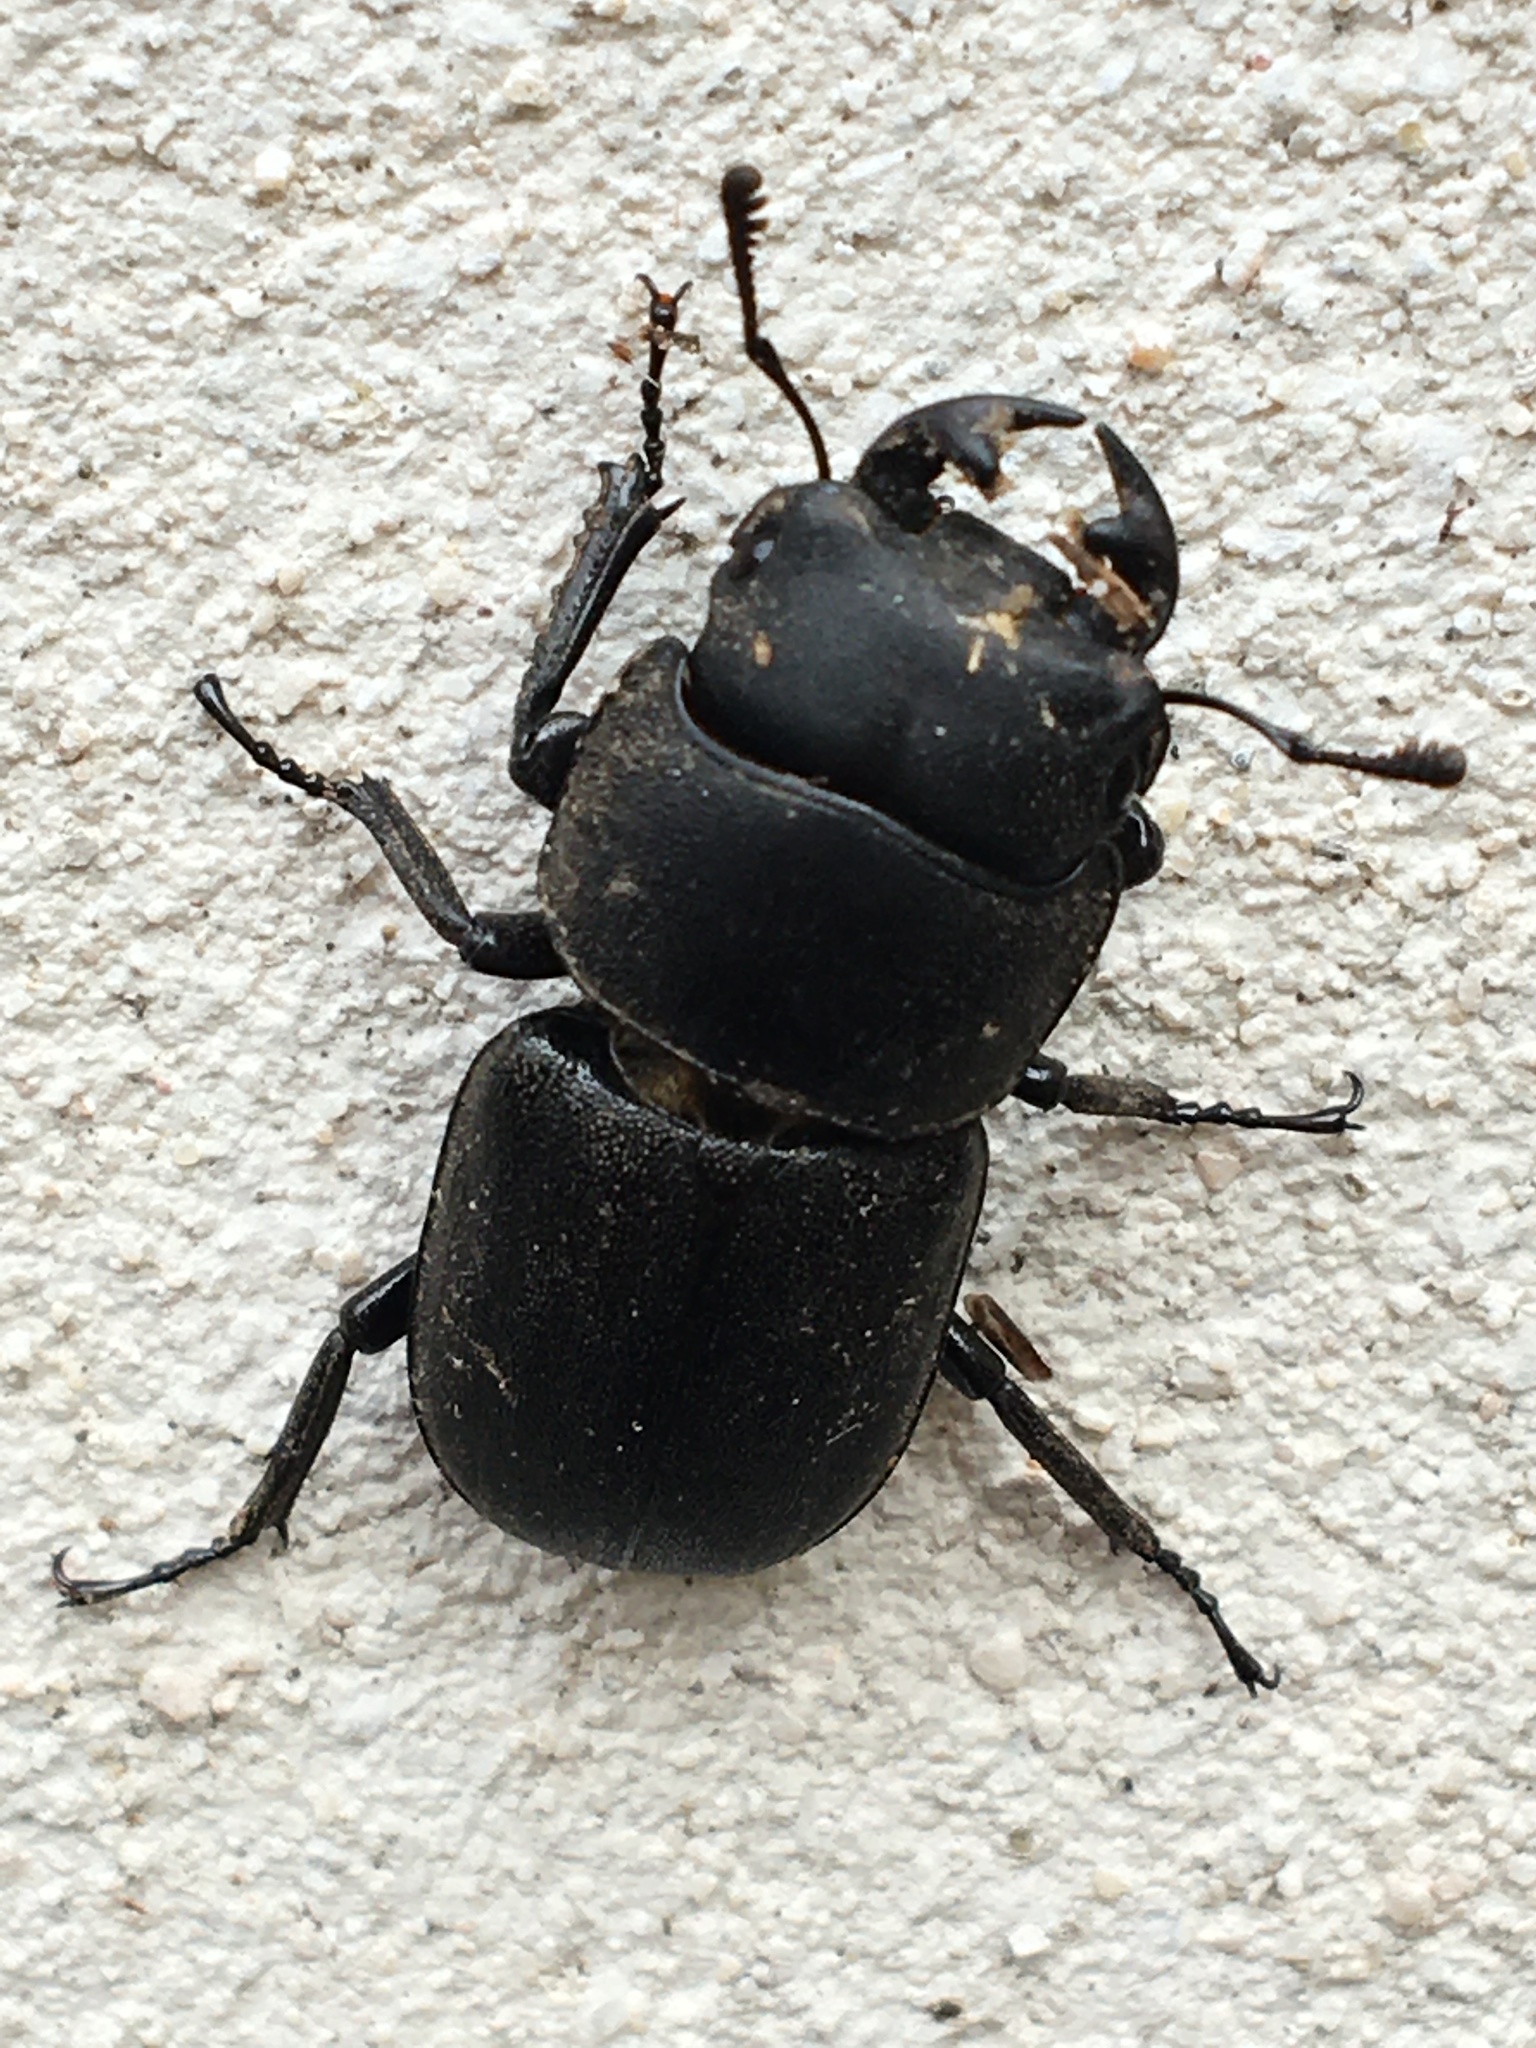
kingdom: Animalia
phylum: Arthropoda
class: Insecta
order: Coleoptera
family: Lucanidae
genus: Dorcus
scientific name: Dorcus parallelipipedus
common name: Lesser stag beetle
